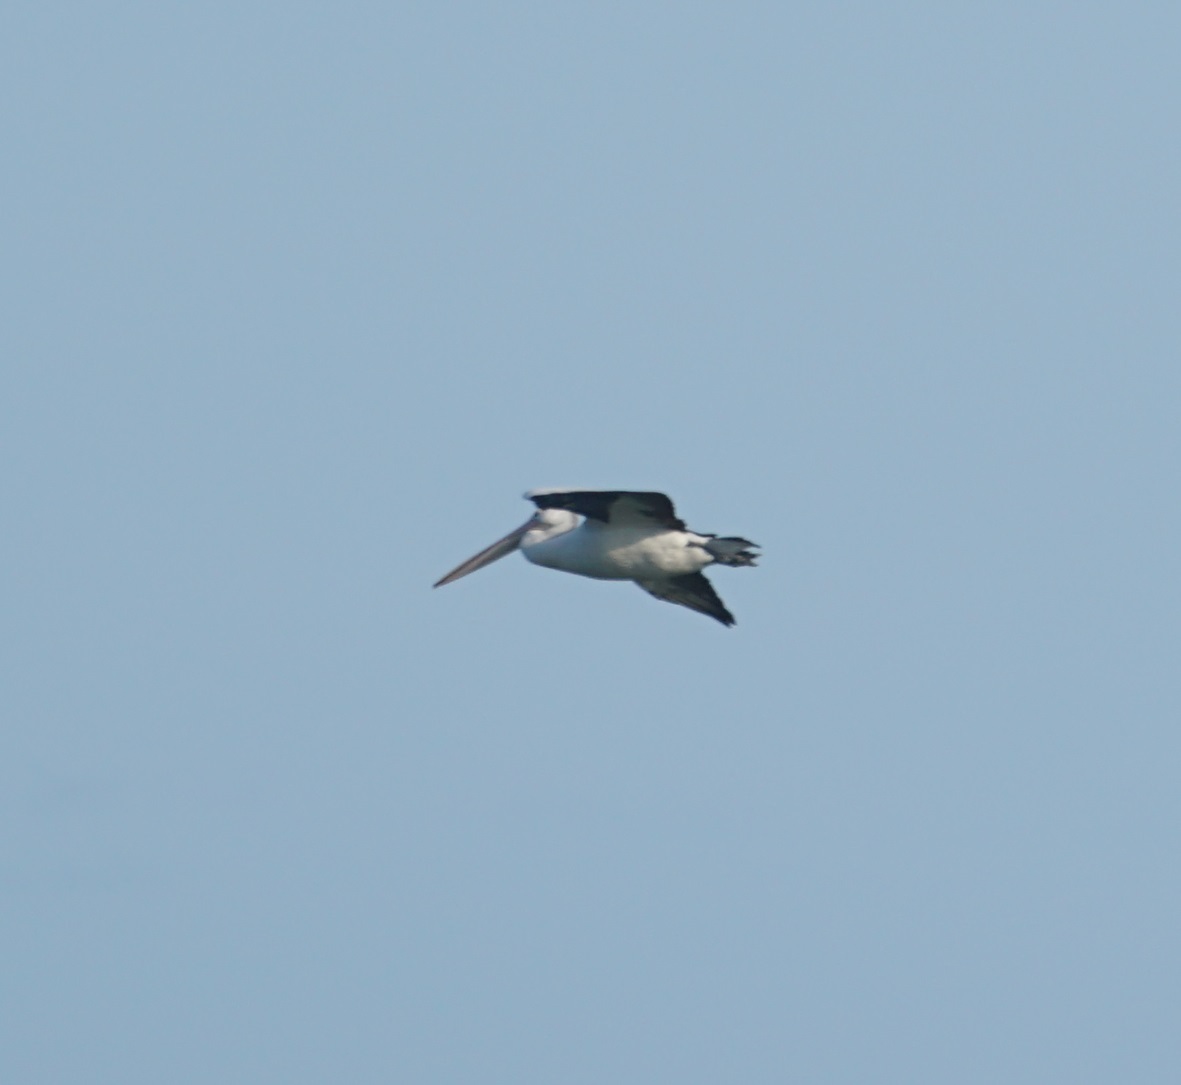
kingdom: Animalia
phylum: Chordata
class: Aves
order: Pelecaniformes
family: Pelecanidae
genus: Pelecanus
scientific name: Pelecanus conspicillatus
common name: Australian pelican
